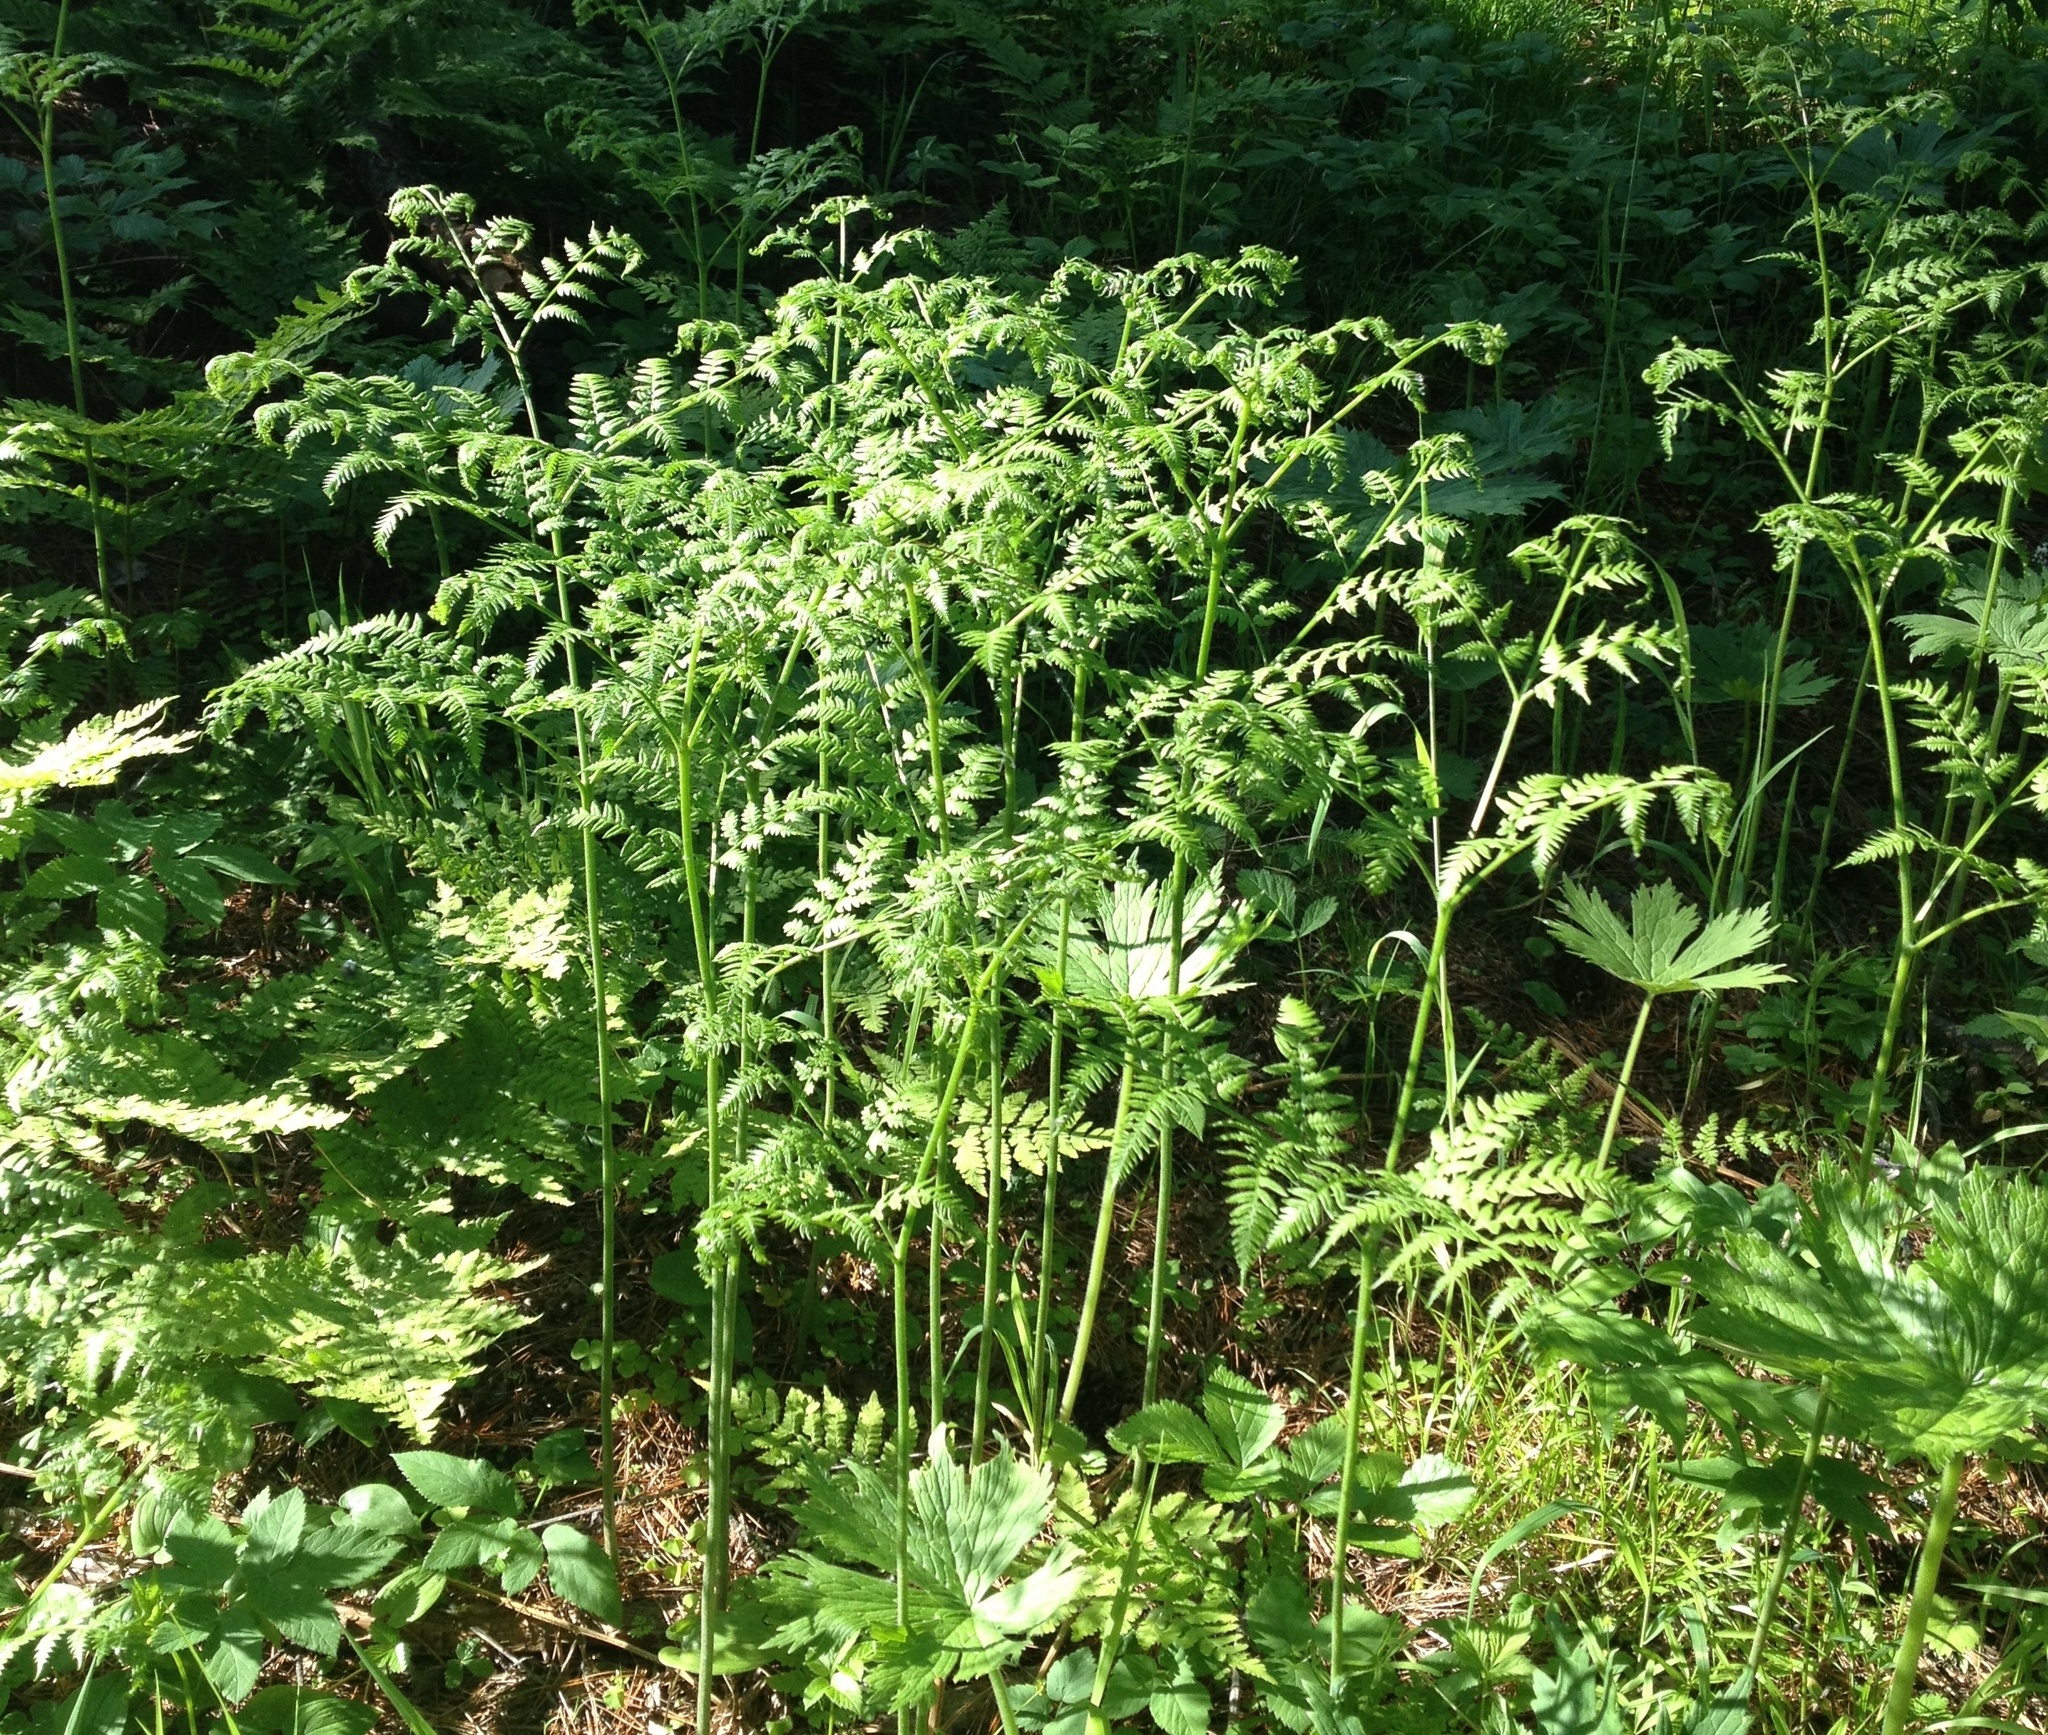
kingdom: Plantae
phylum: Tracheophyta
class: Polypodiopsida
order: Polypodiales
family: Dennstaedtiaceae
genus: Pteridium
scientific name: Pteridium aquilinum
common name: Bracken
